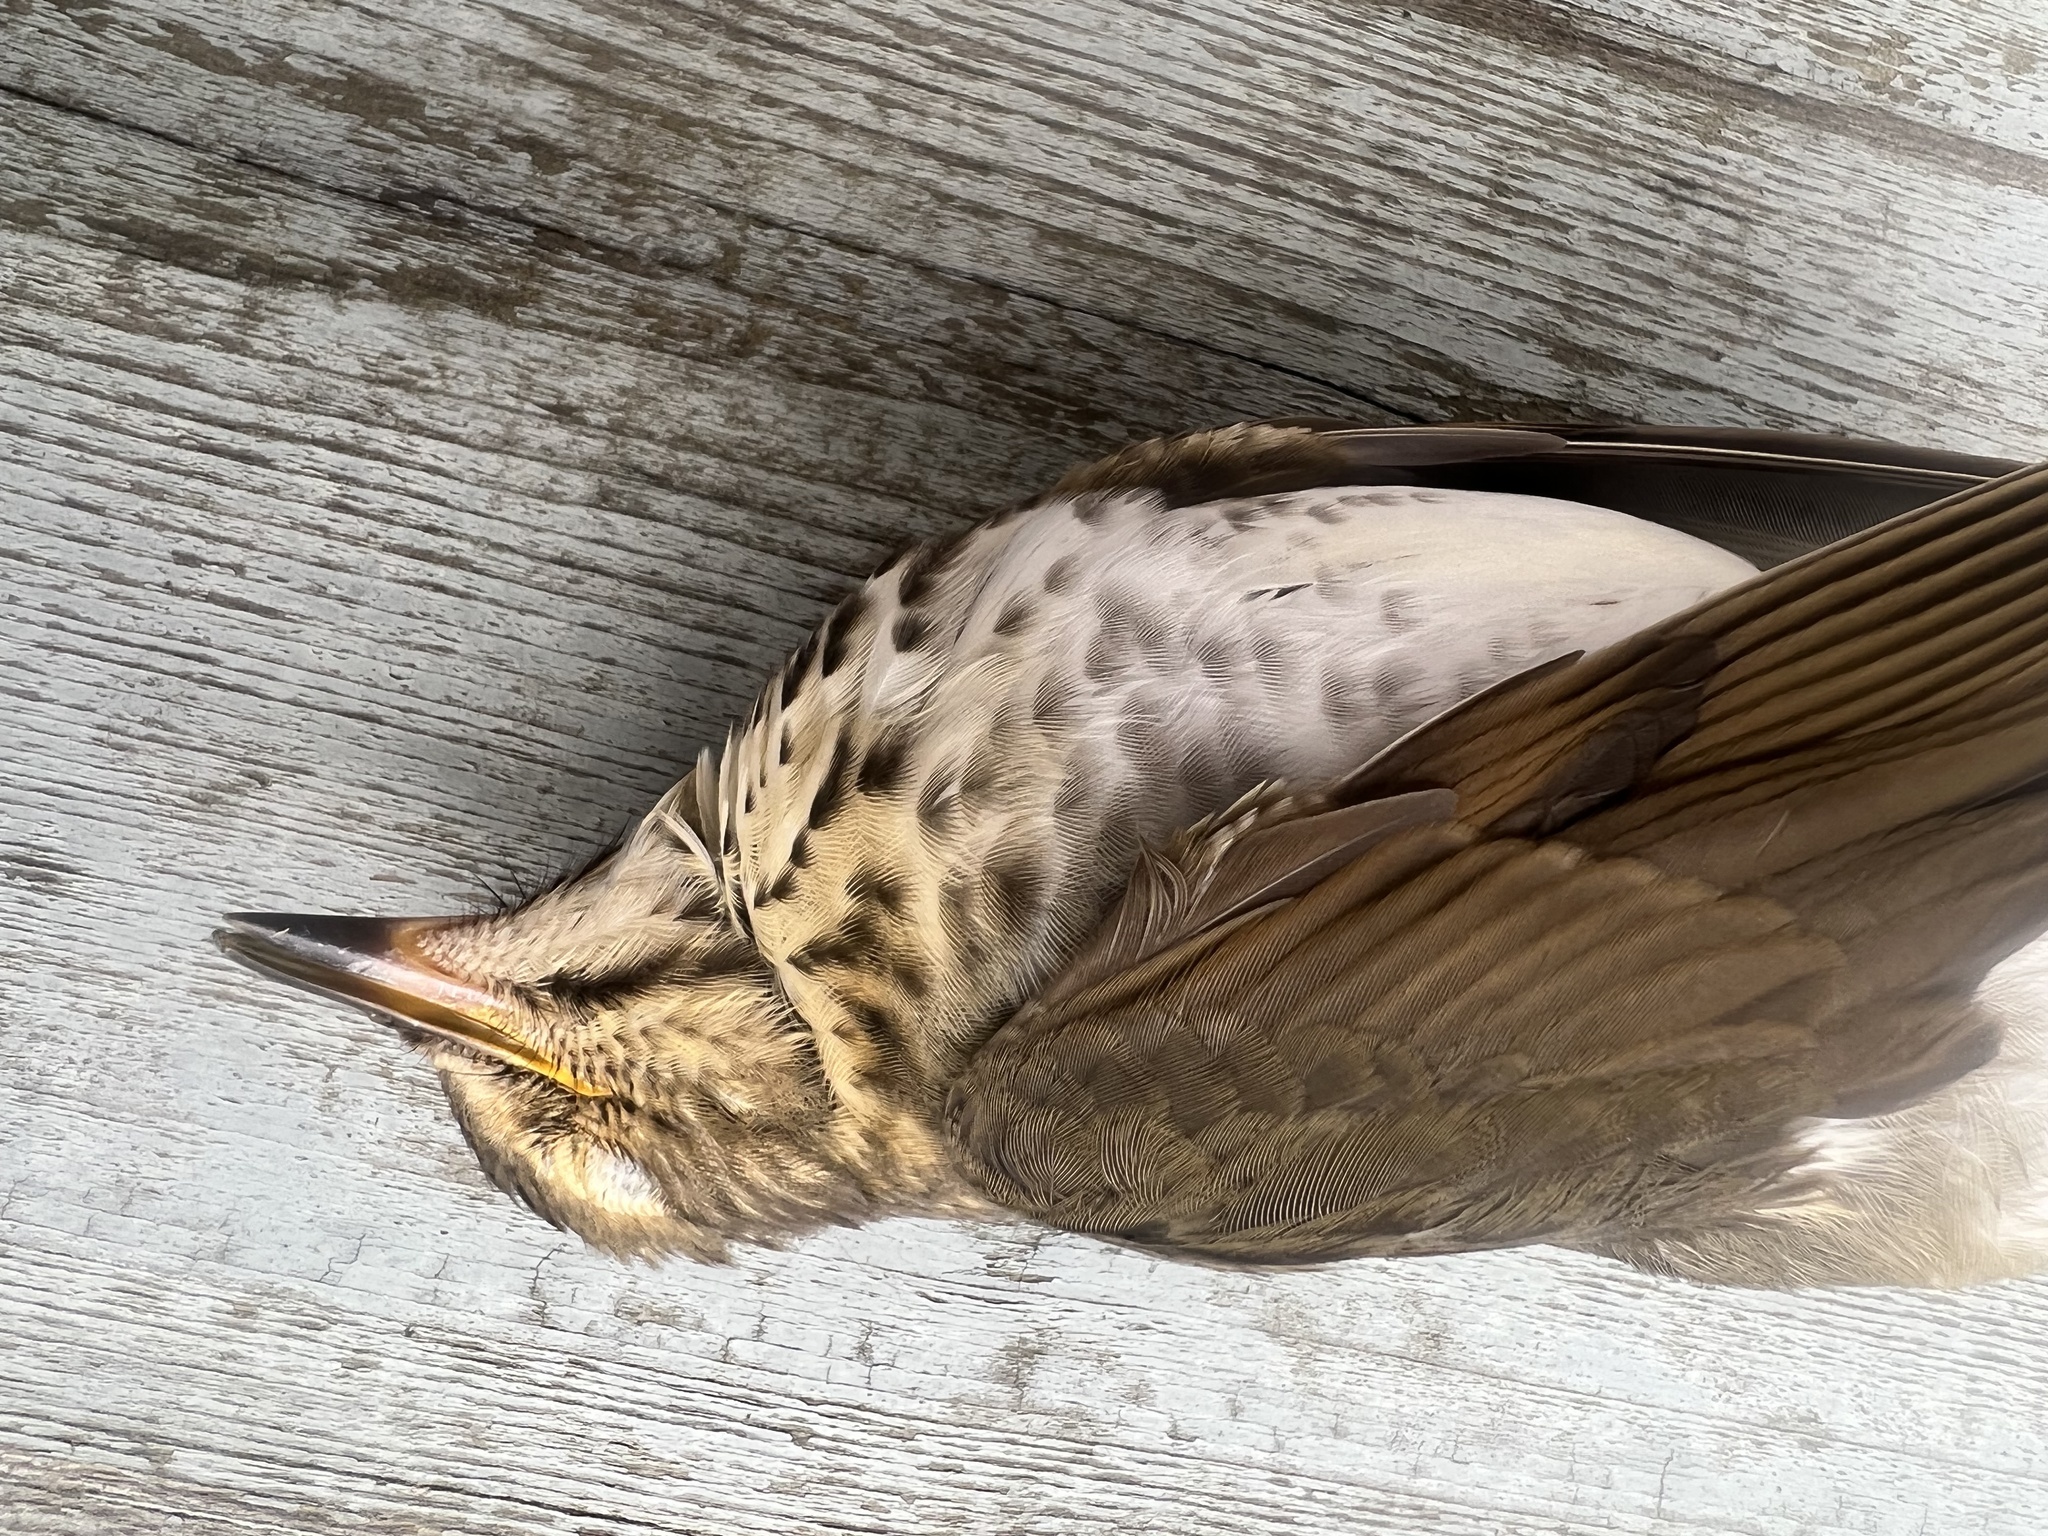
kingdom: Animalia
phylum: Chordata
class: Aves
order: Passeriformes
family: Turdidae
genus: Catharus
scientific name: Catharus ustulatus
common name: Swainson's thrush
